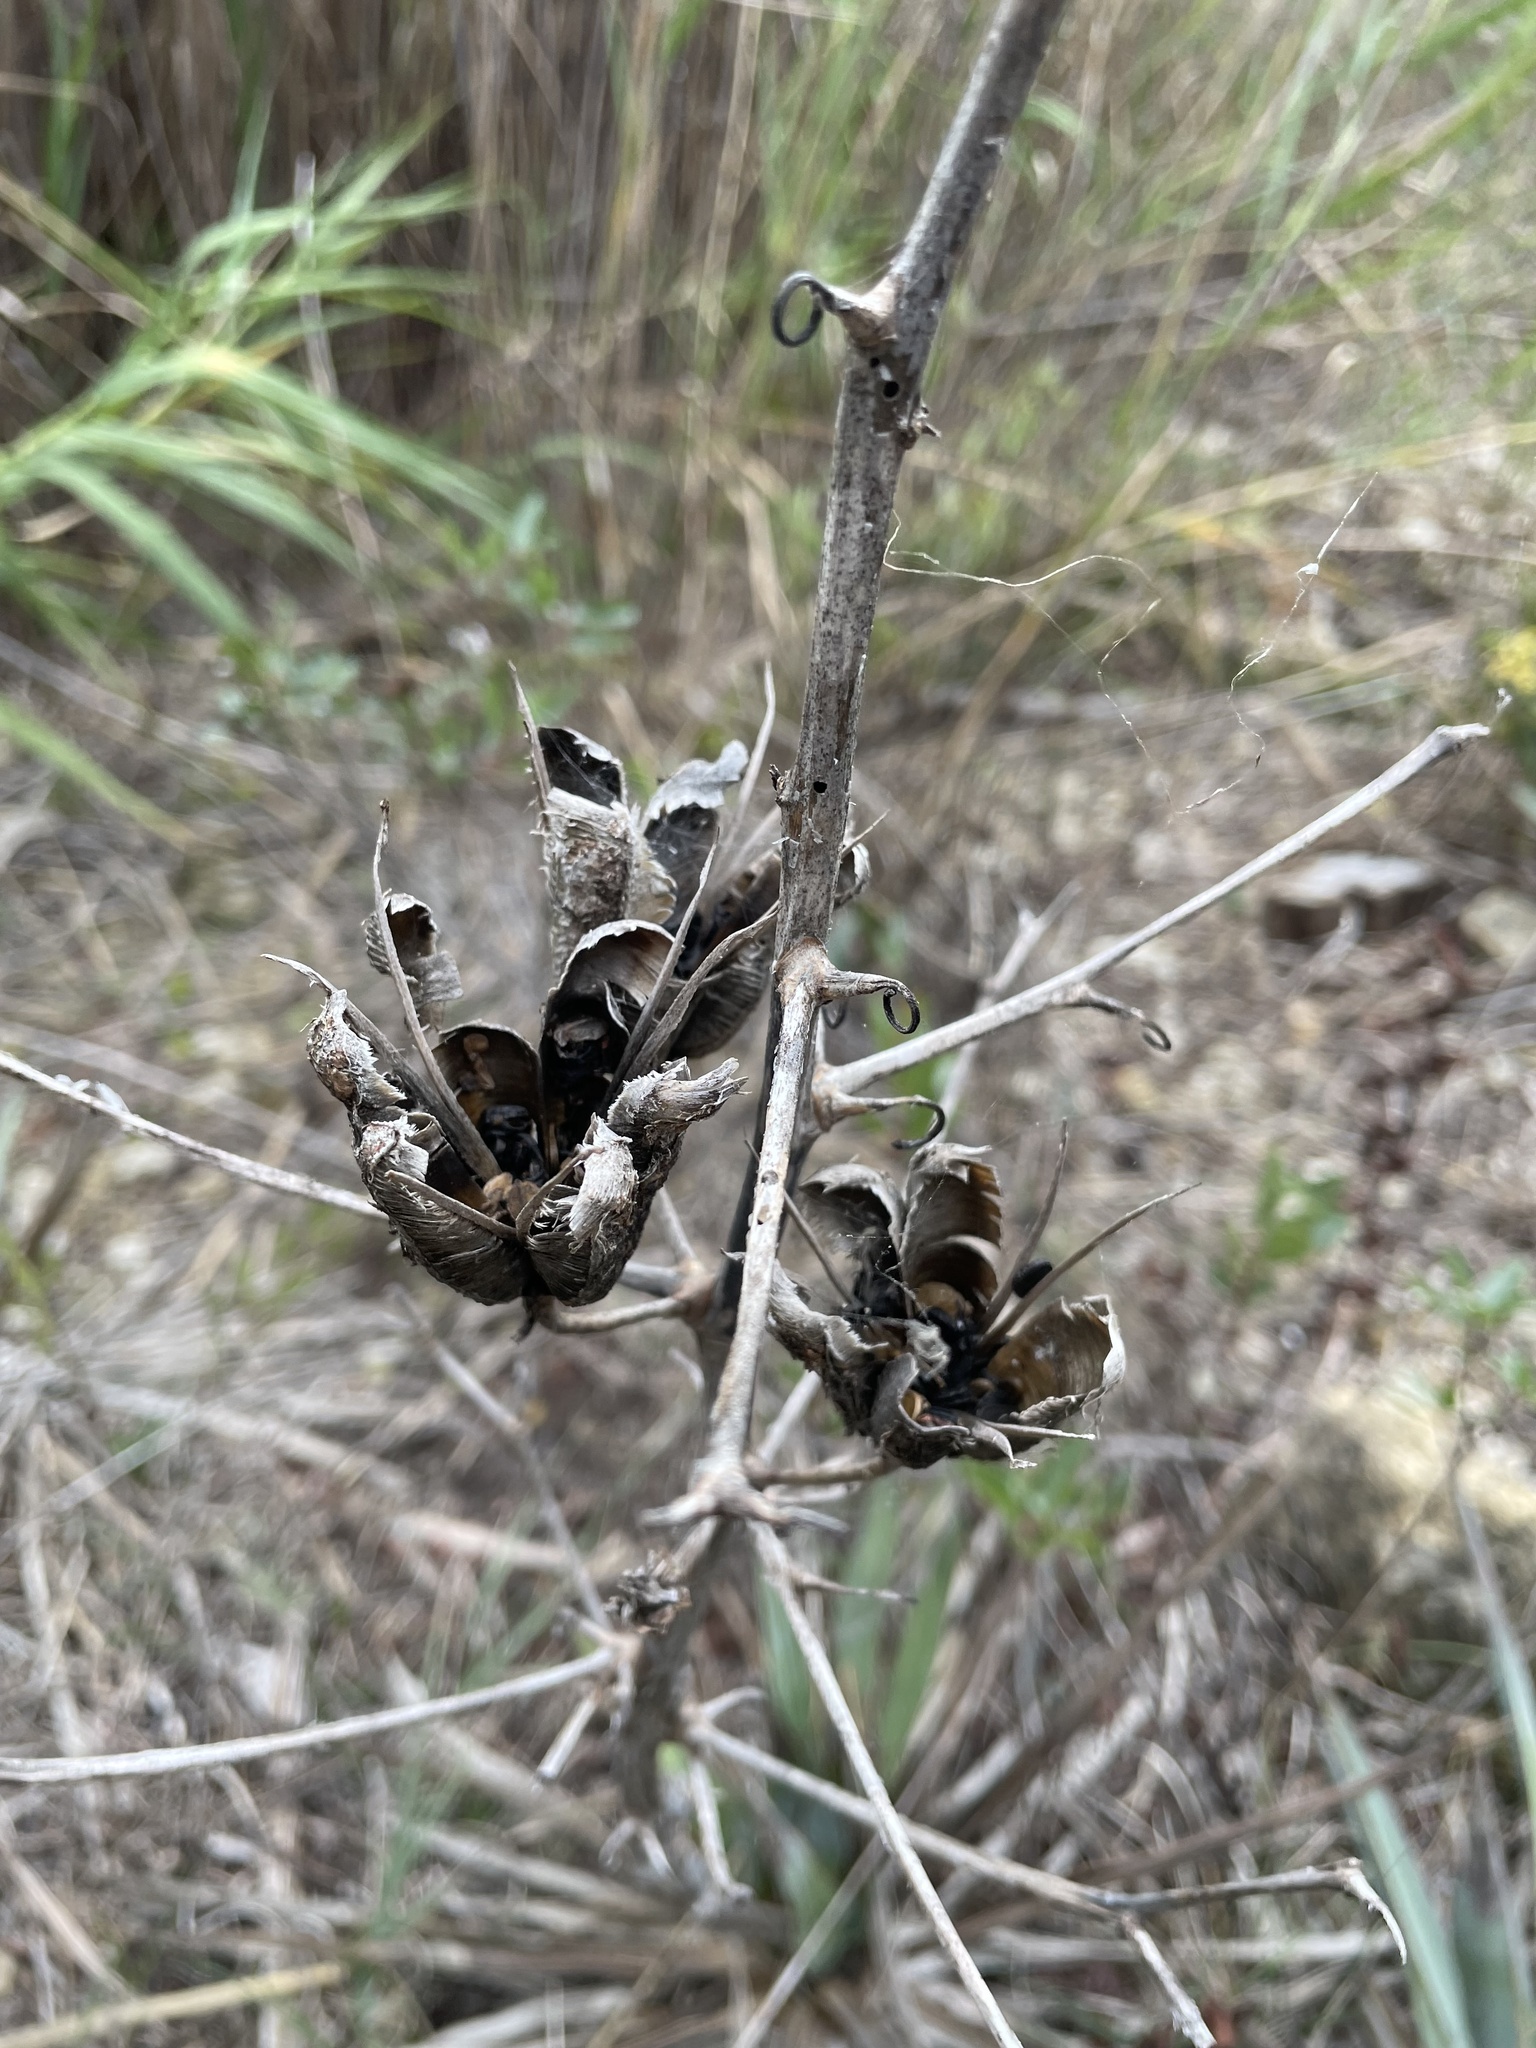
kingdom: Plantae
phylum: Tracheophyta
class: Liliopsida
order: Asparagales
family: Asparagaceae
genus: Yucca
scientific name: Yucca pallida
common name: Pale leaf yucca
